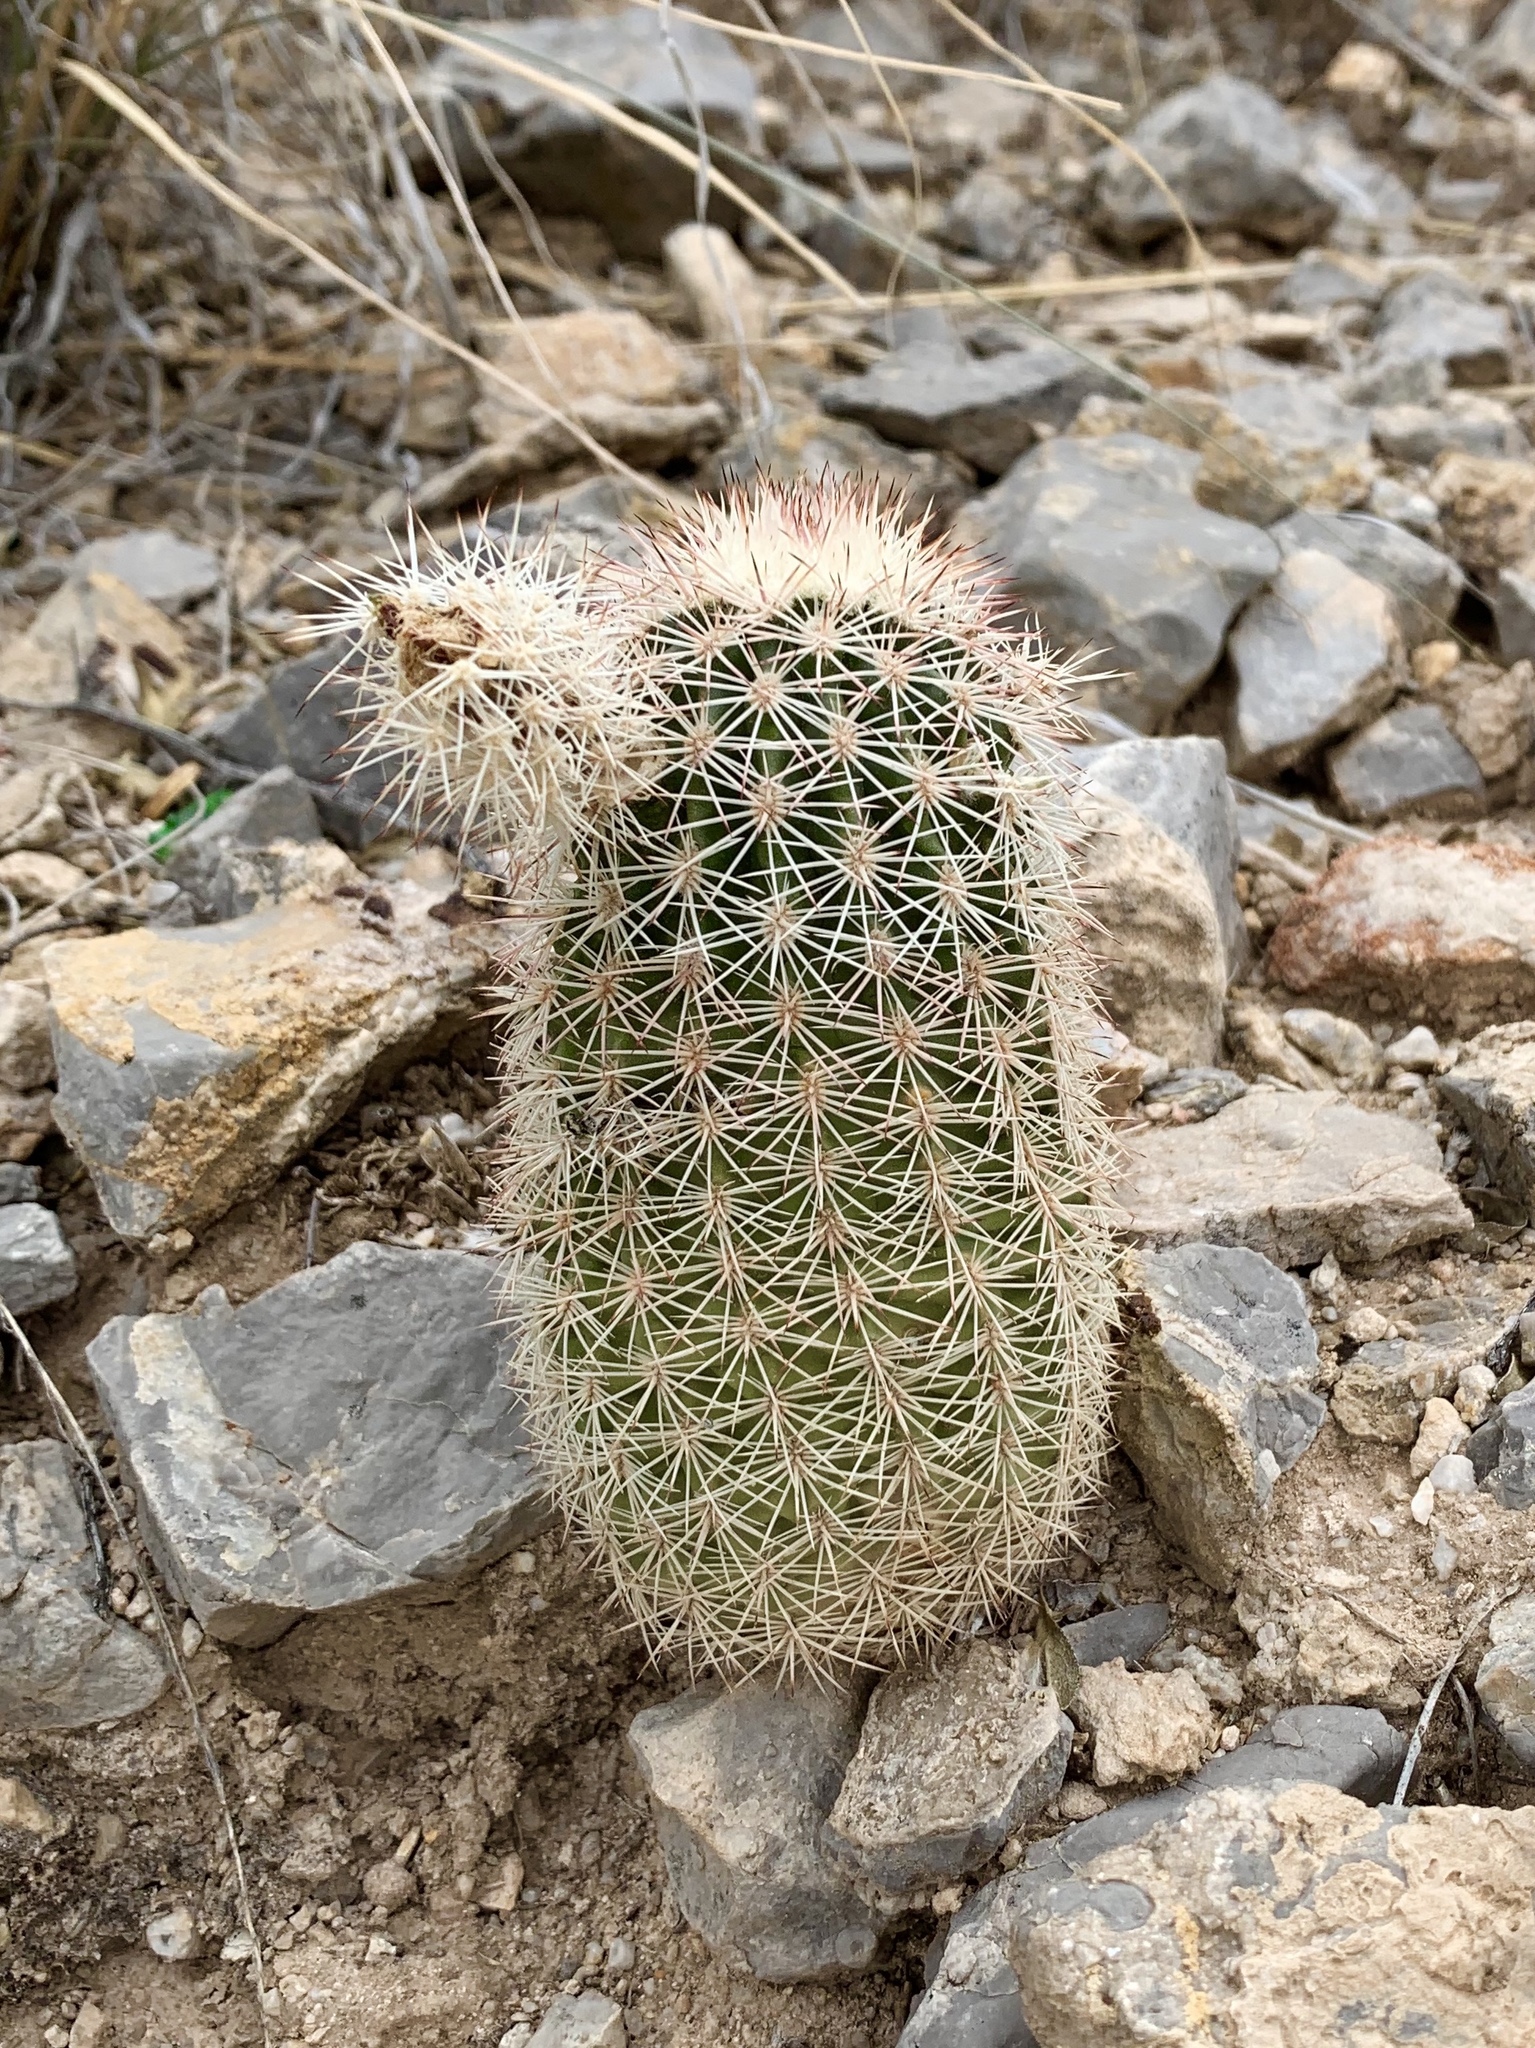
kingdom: Plantae
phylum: Tracheophyta
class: Magnoliopsida
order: Caryophyllales
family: Cactaceae
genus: Echinocereus
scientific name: Echinocereus dasyacanthus
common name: Spiny hedgehog cactus
